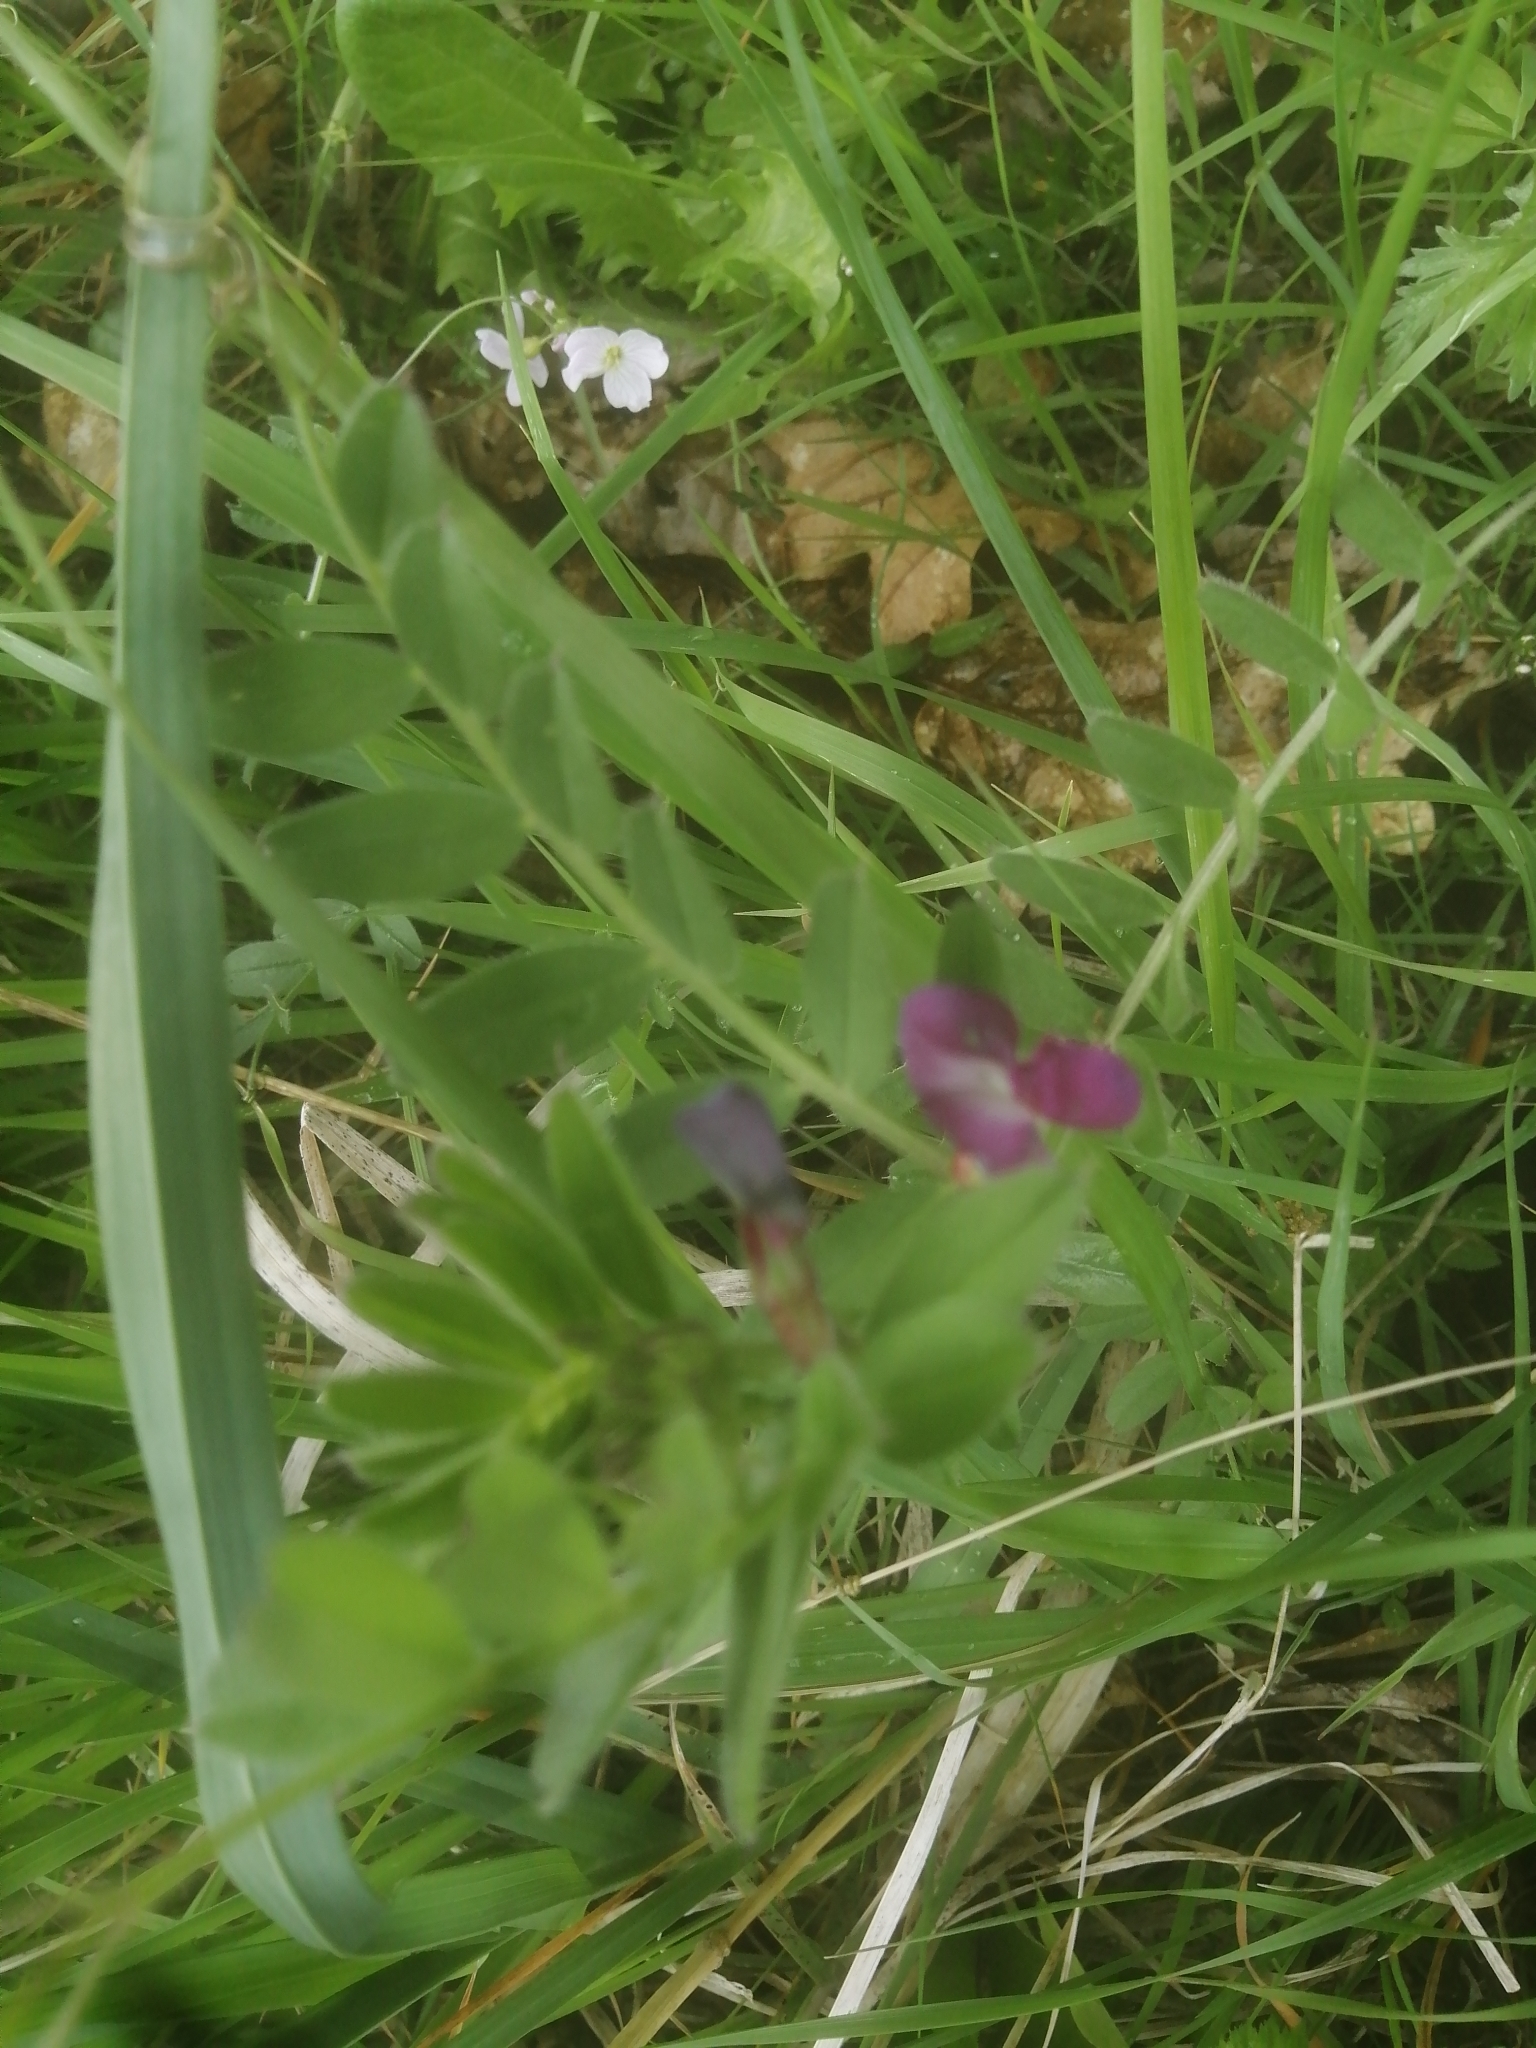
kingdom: Plantae
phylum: Tracheophyta
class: Magnoliopsida
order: Fabales
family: Fabaceae
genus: Vicia
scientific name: Vicia sativa
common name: Garden vetch
